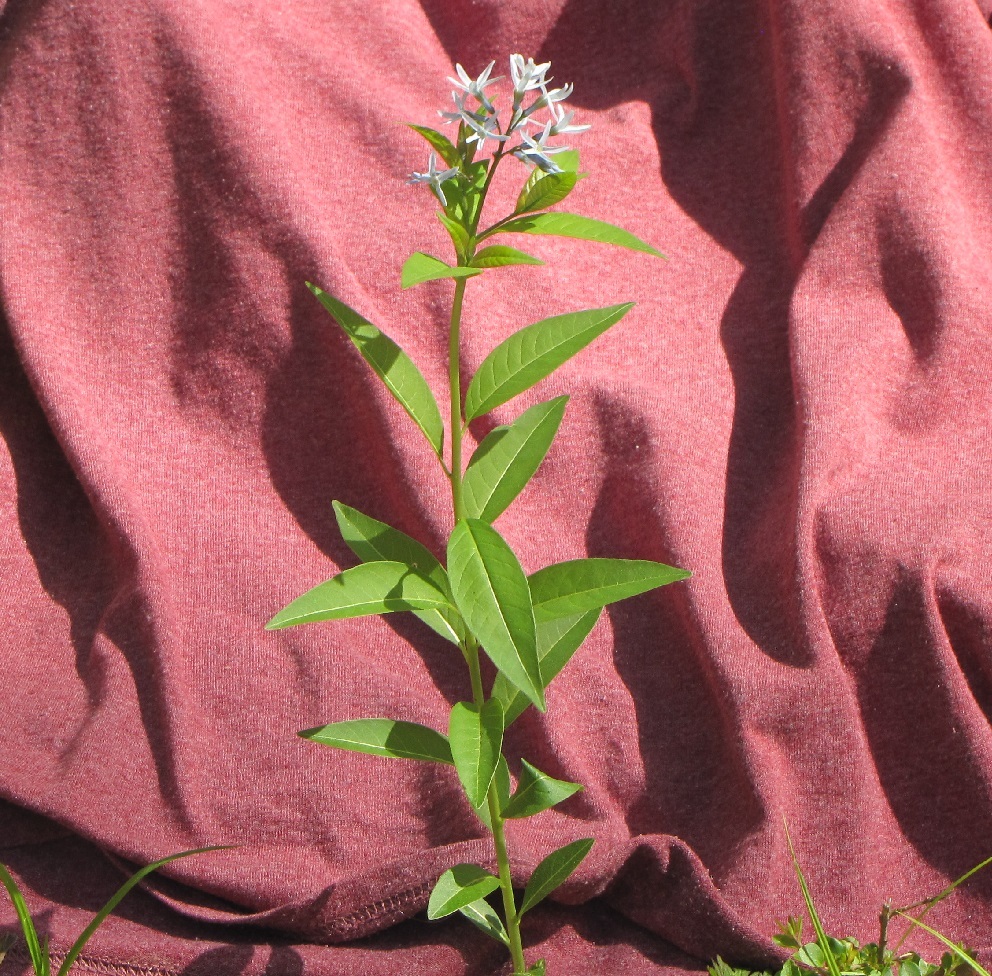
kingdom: Plantae
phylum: Tracheophyta
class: Magnoliopsida
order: Gentianales
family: Apocynaceae
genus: Amsonia
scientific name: Amsonia tabernaemontana
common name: Texas-star
